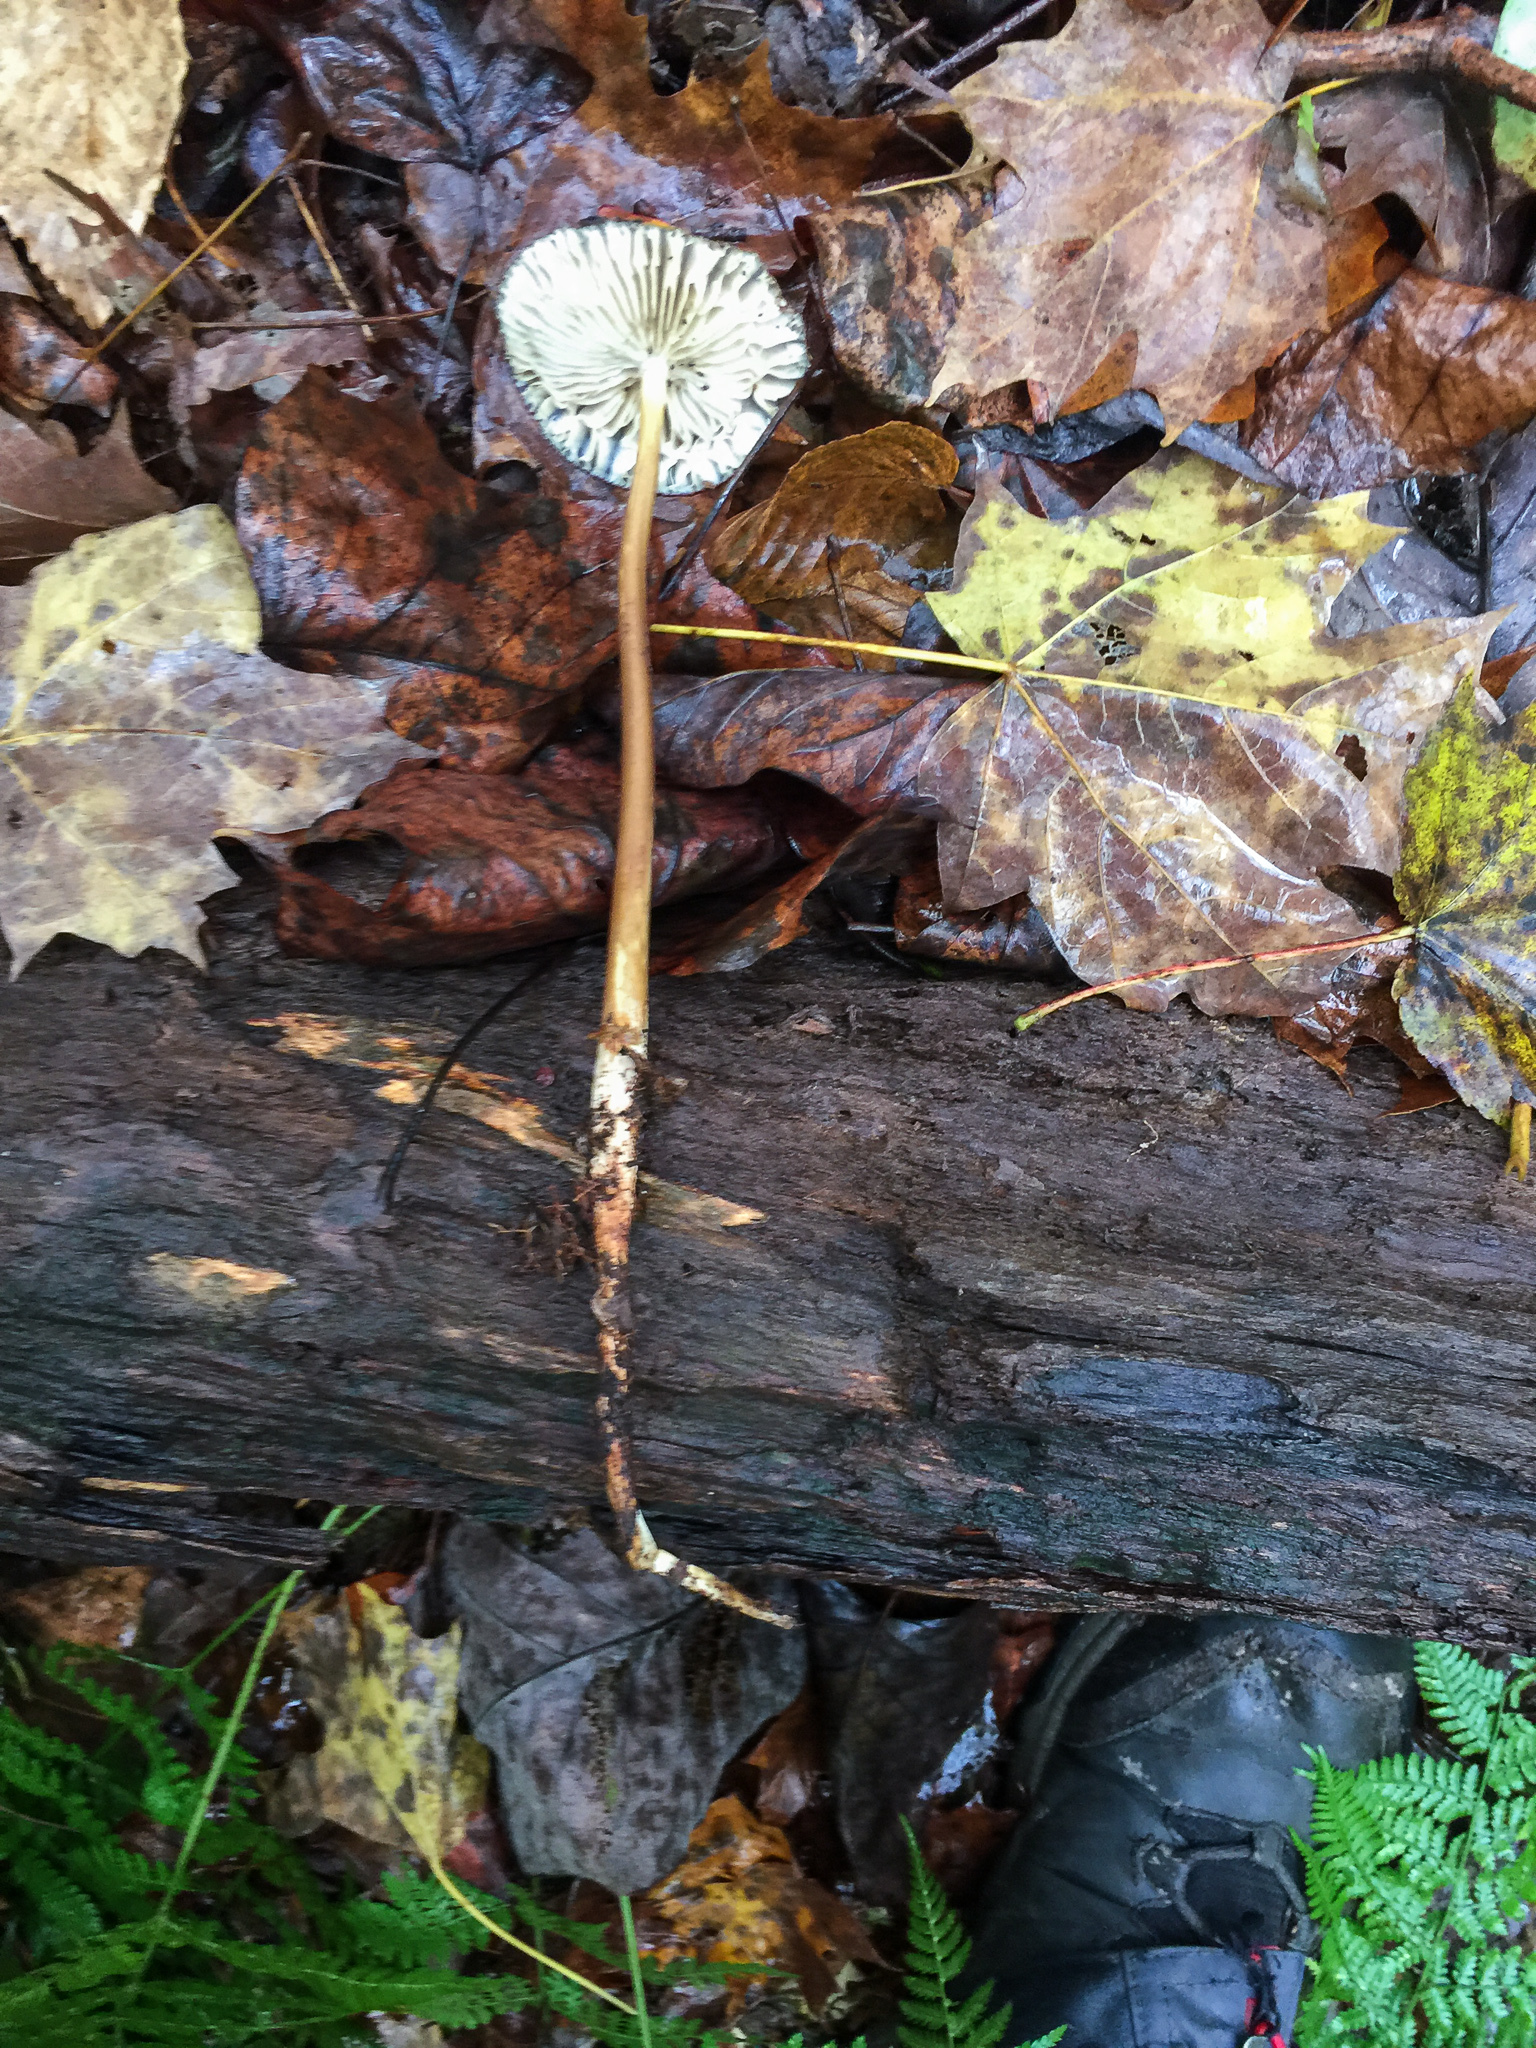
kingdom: Fungi
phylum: Basidiomycota
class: Agaricomycetes
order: Agaricales
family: Physalacriaceae
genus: Hymenopellis
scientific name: Hymenopellis furfuracea
